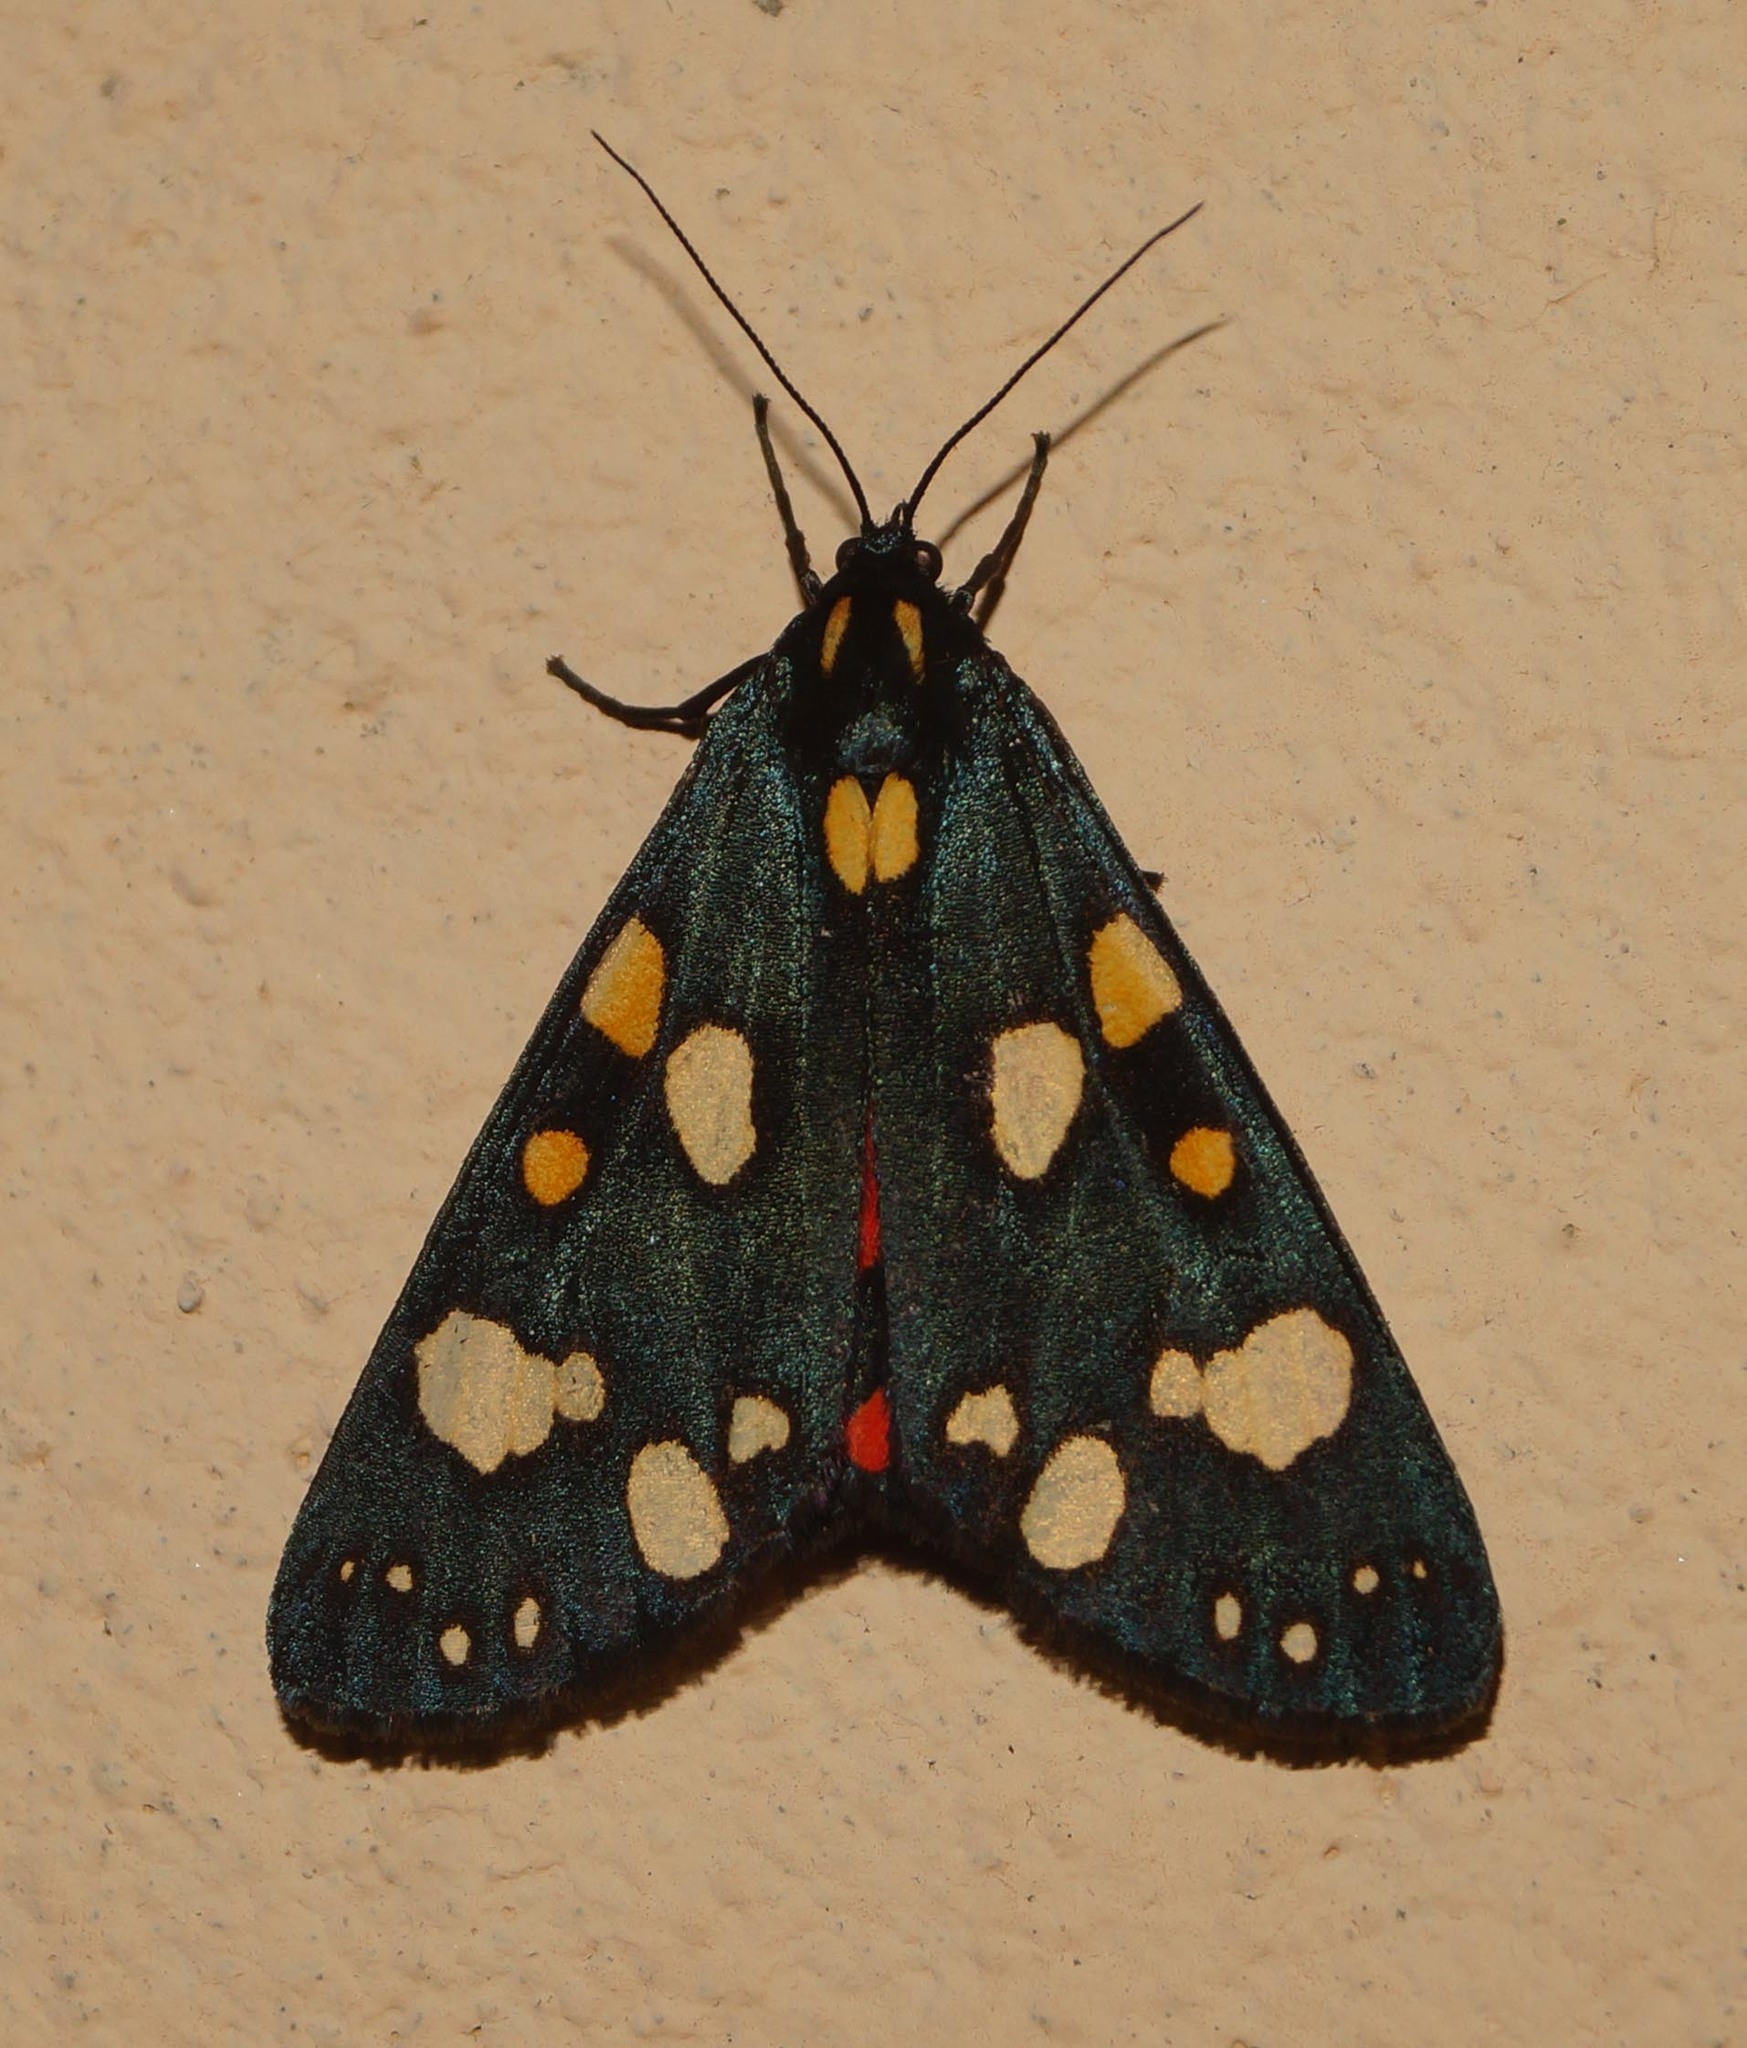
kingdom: Animalia
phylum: Arthropoda
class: Insecta
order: Lepidoptera
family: Erebidae
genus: Callimorpha
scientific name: Callimorpha dominula
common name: Scarlet tiger
